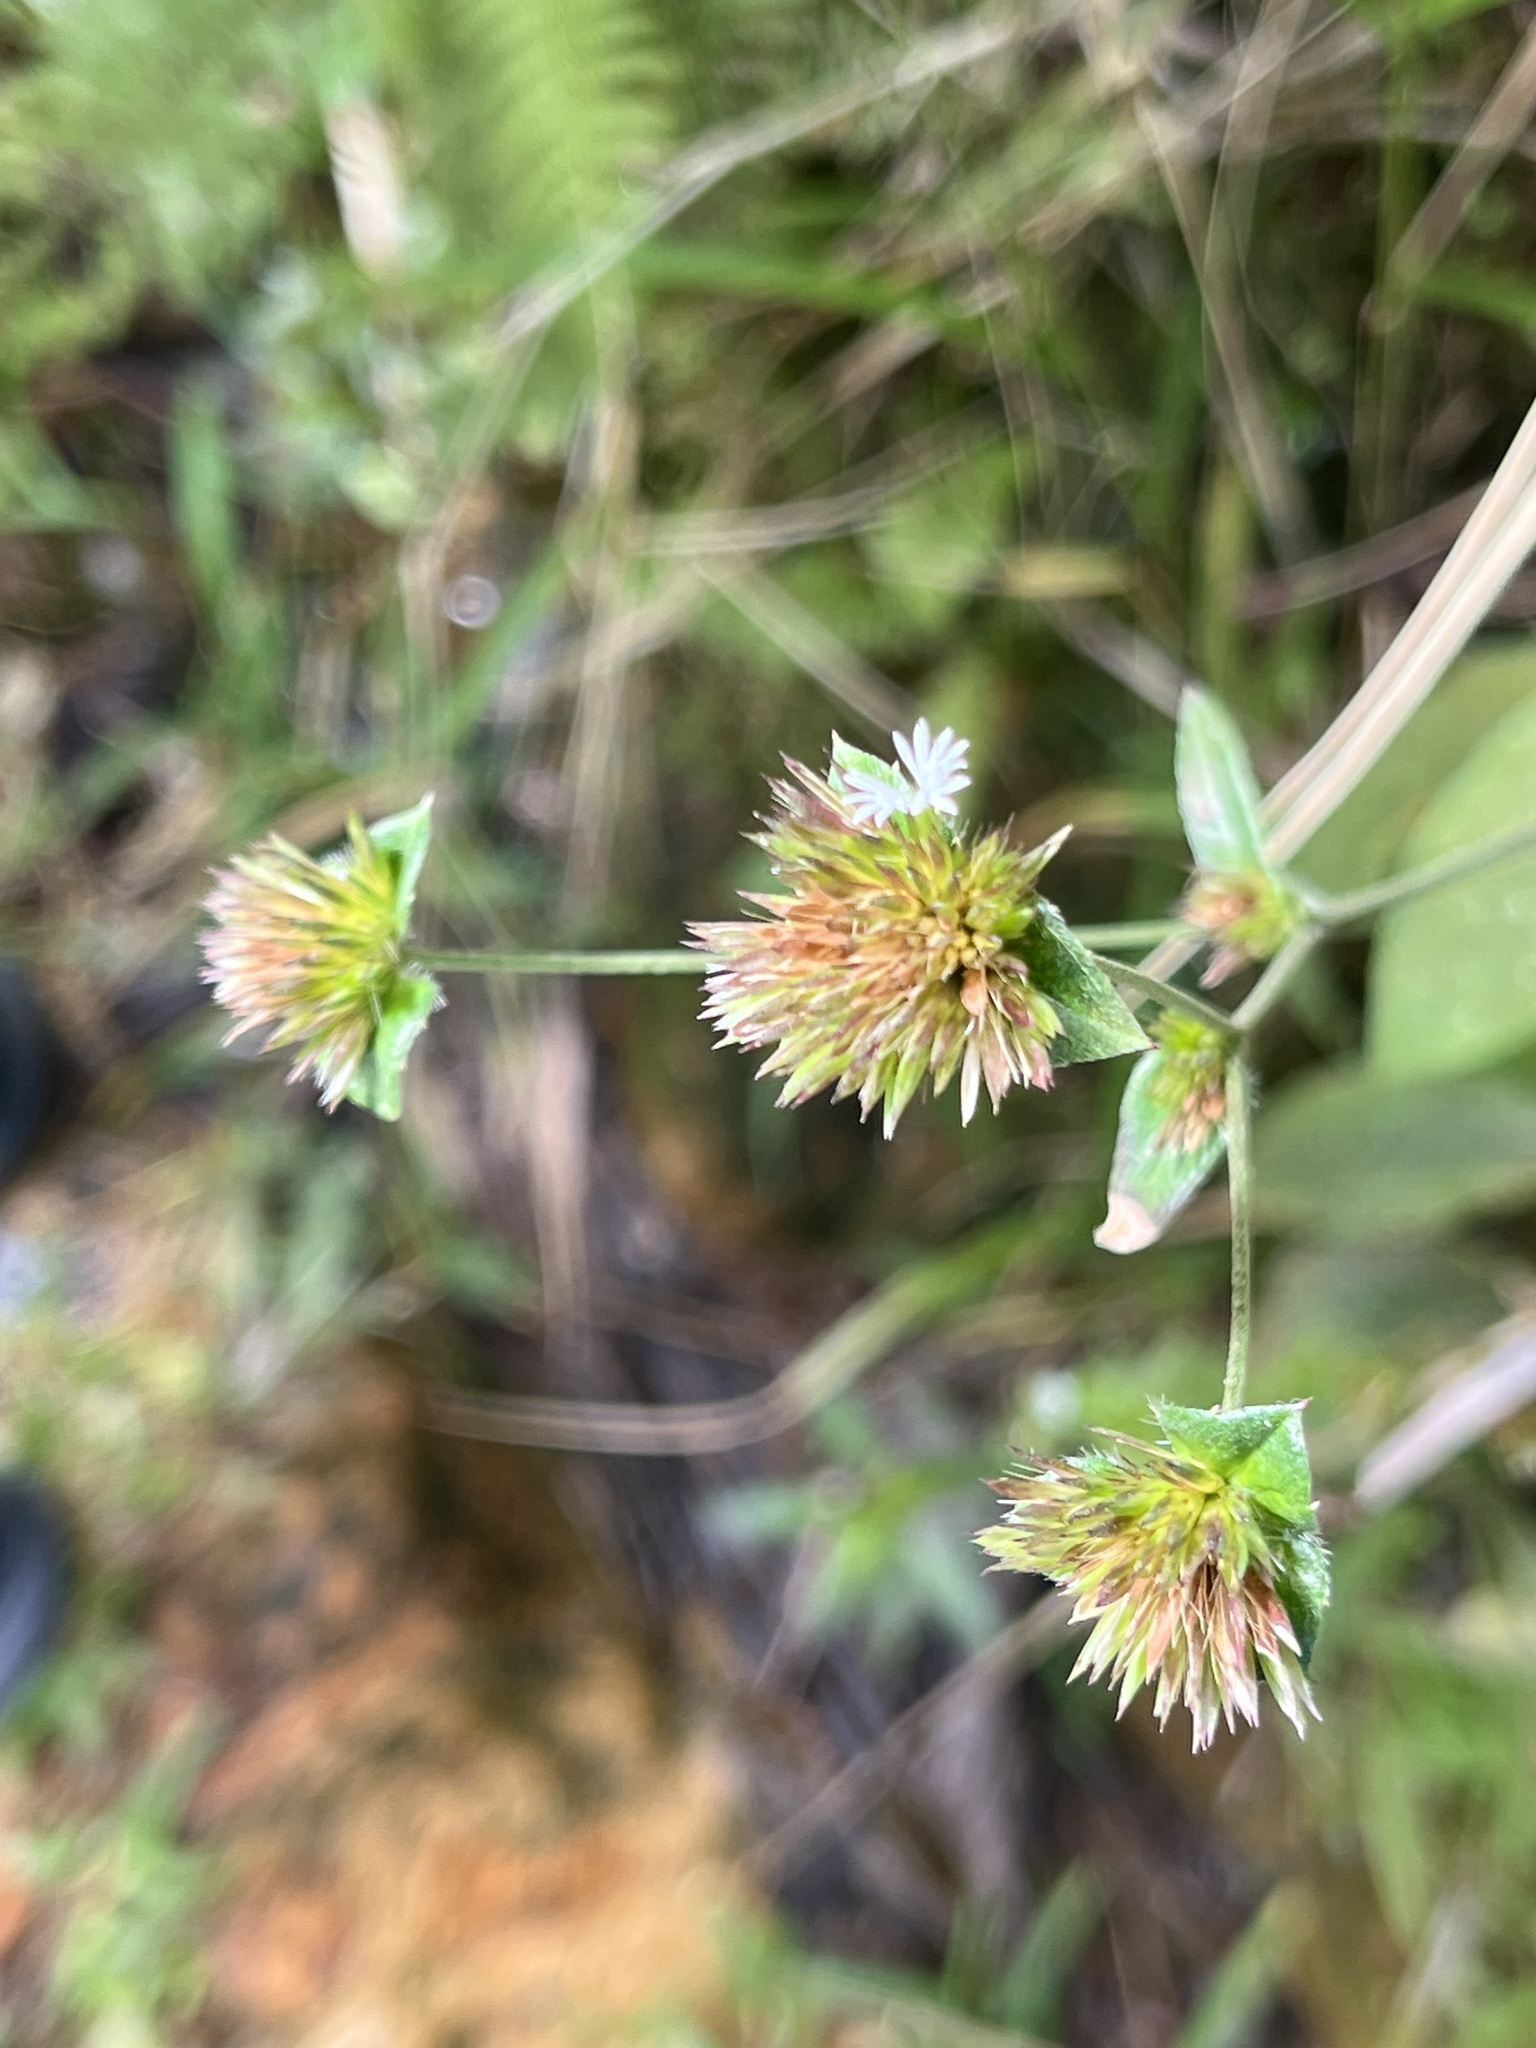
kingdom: Plantae
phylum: Tracheophyta
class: Magnoliopsida
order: Asterales
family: Asteraceae
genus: Elephantopus
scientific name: Elephantopus mollis
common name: Soft elephantsfoot
